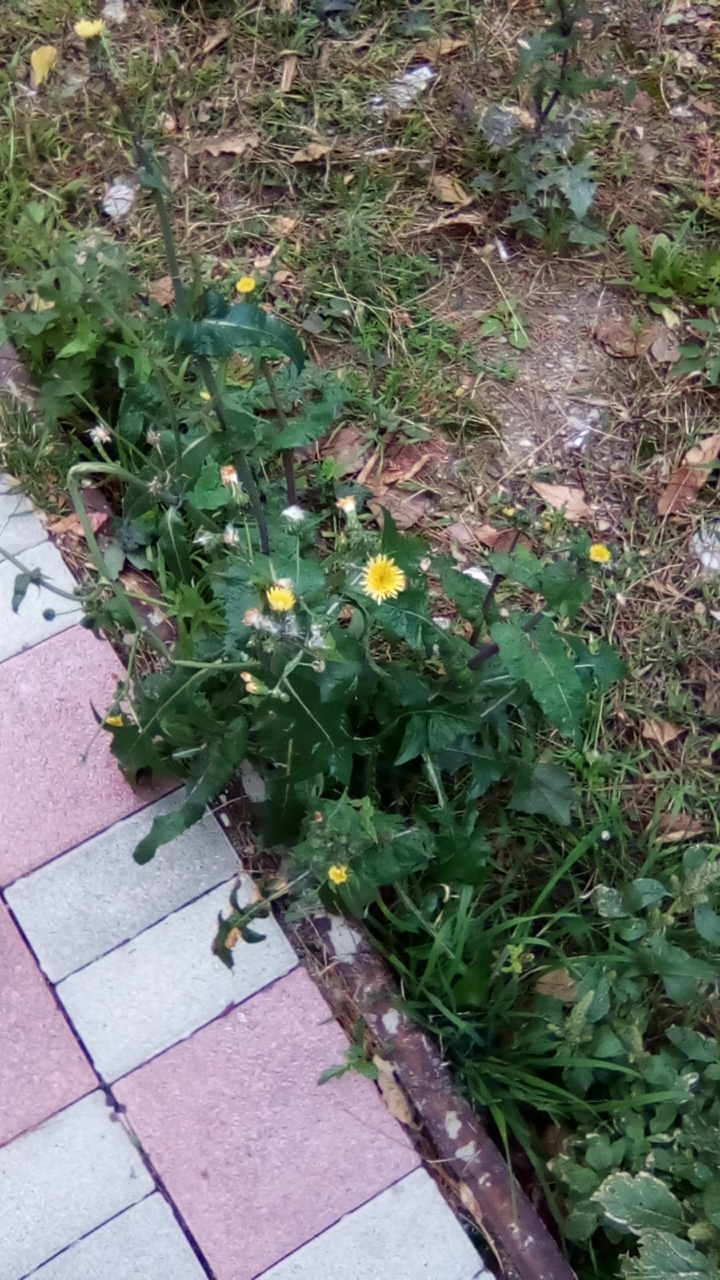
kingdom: Plantae
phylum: Tracheophyta
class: Magnoliopsida
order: Asterales
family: Asteraceae
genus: Sonchus
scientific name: Sonchus oleraceus
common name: Common sowthistle
